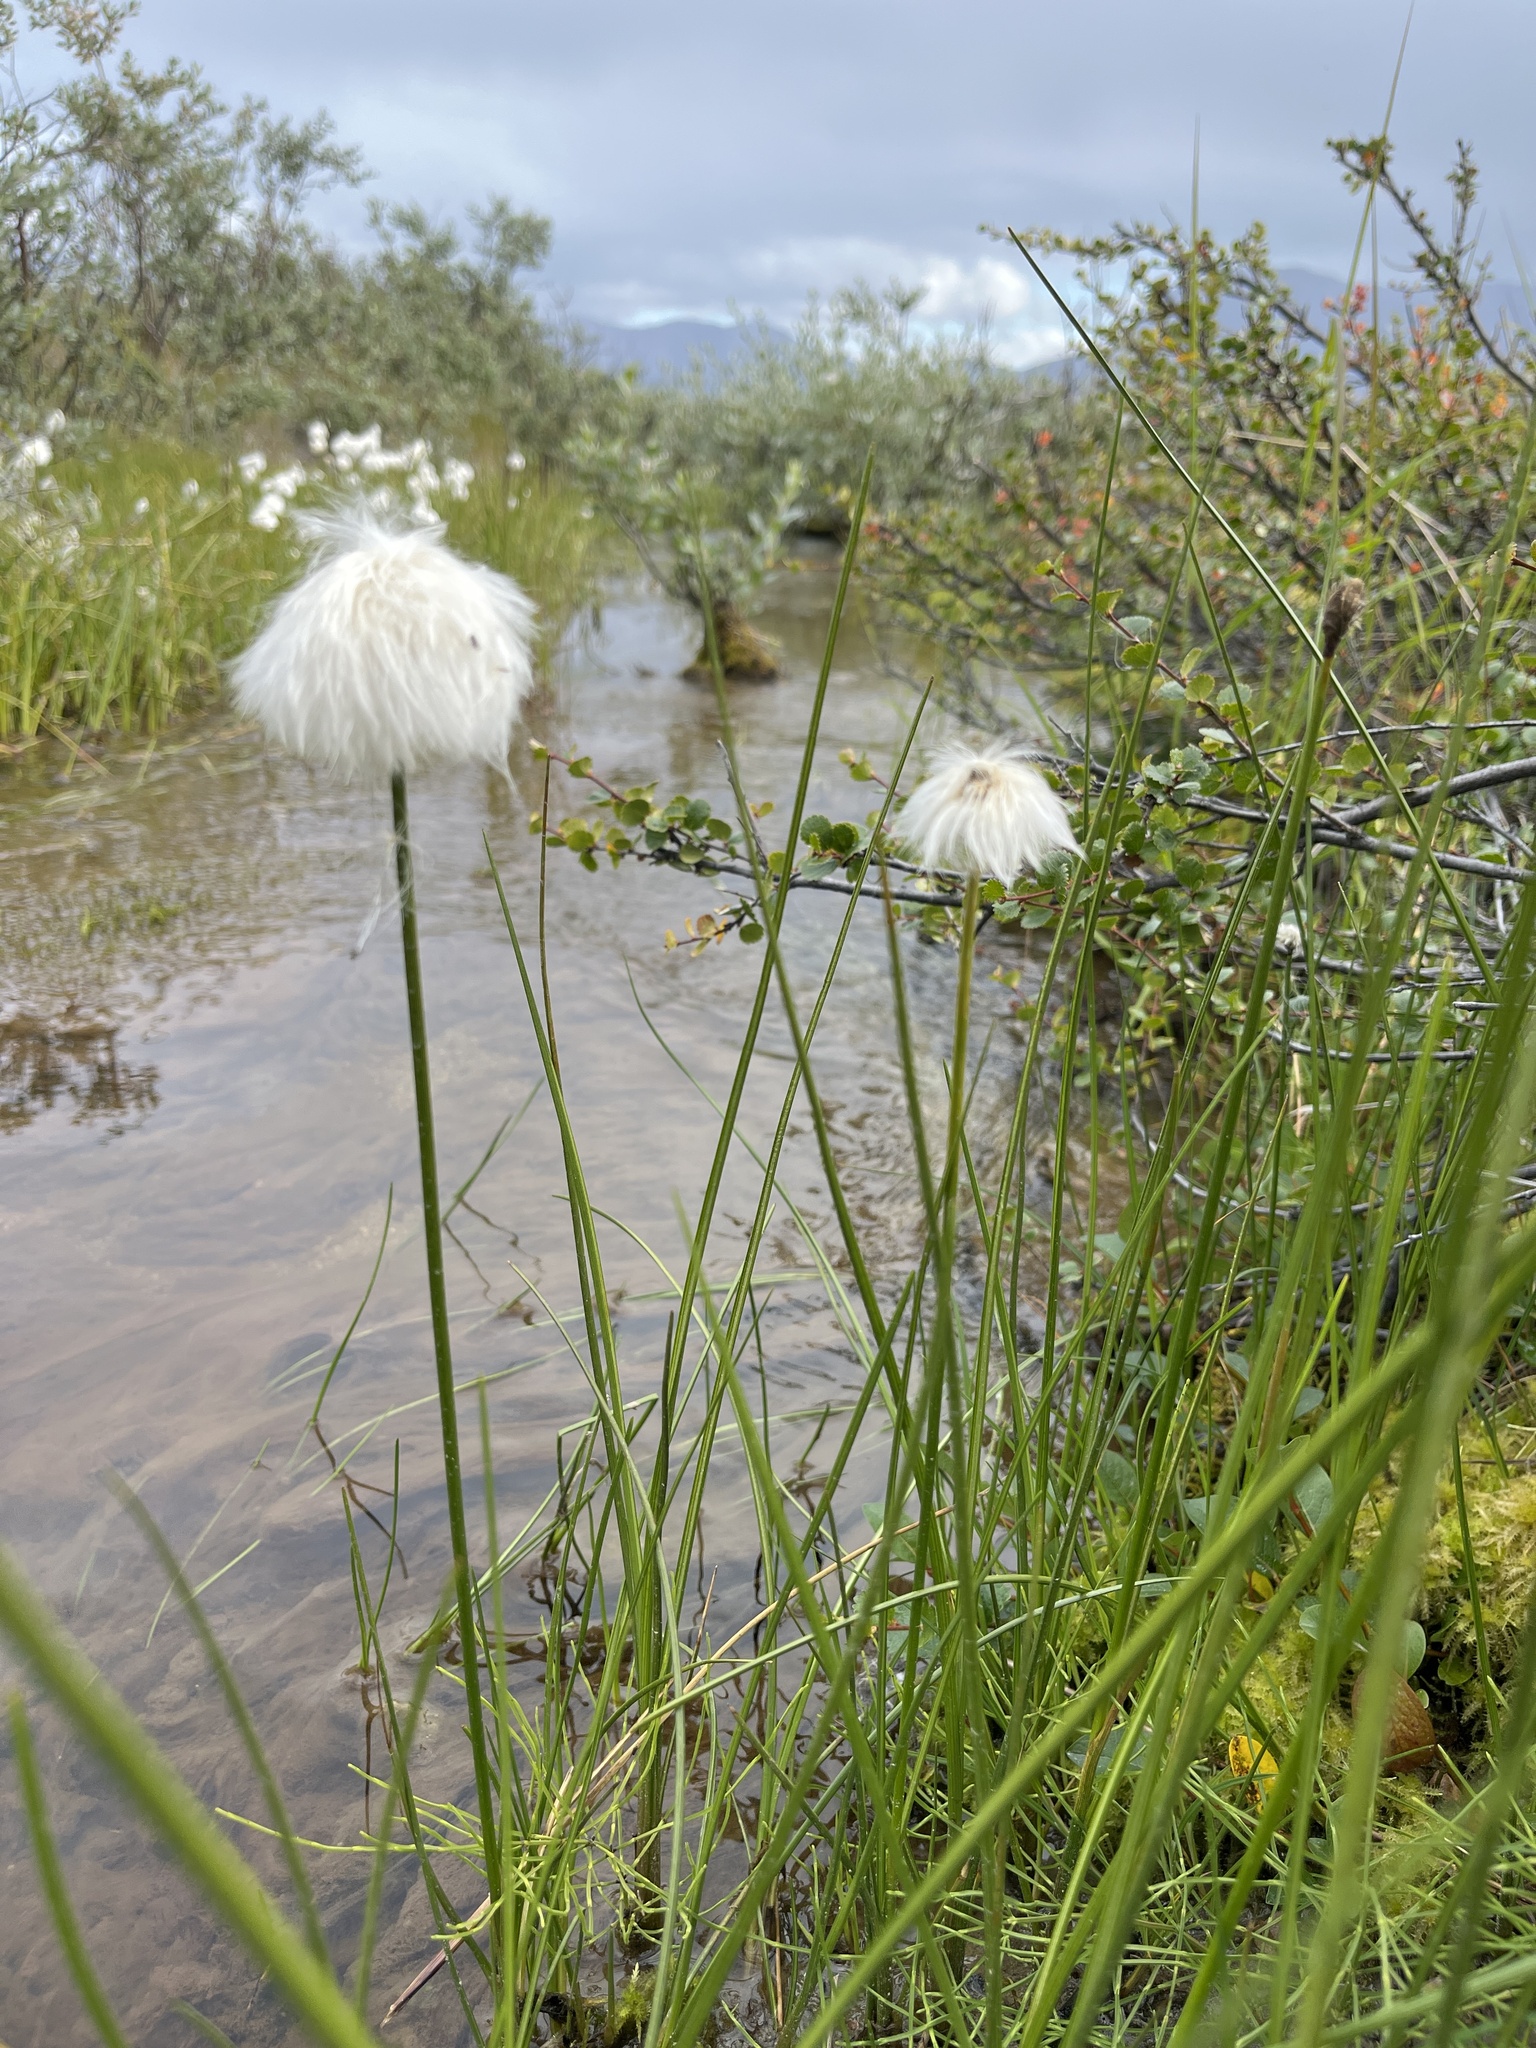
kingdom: Plantae
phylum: Tracheophyta
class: Liliopsida
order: Poales
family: Cyperaceae
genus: Eriophorum
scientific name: Eriophorum scheuchzeri
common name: Scheuchzer's cottongrass
